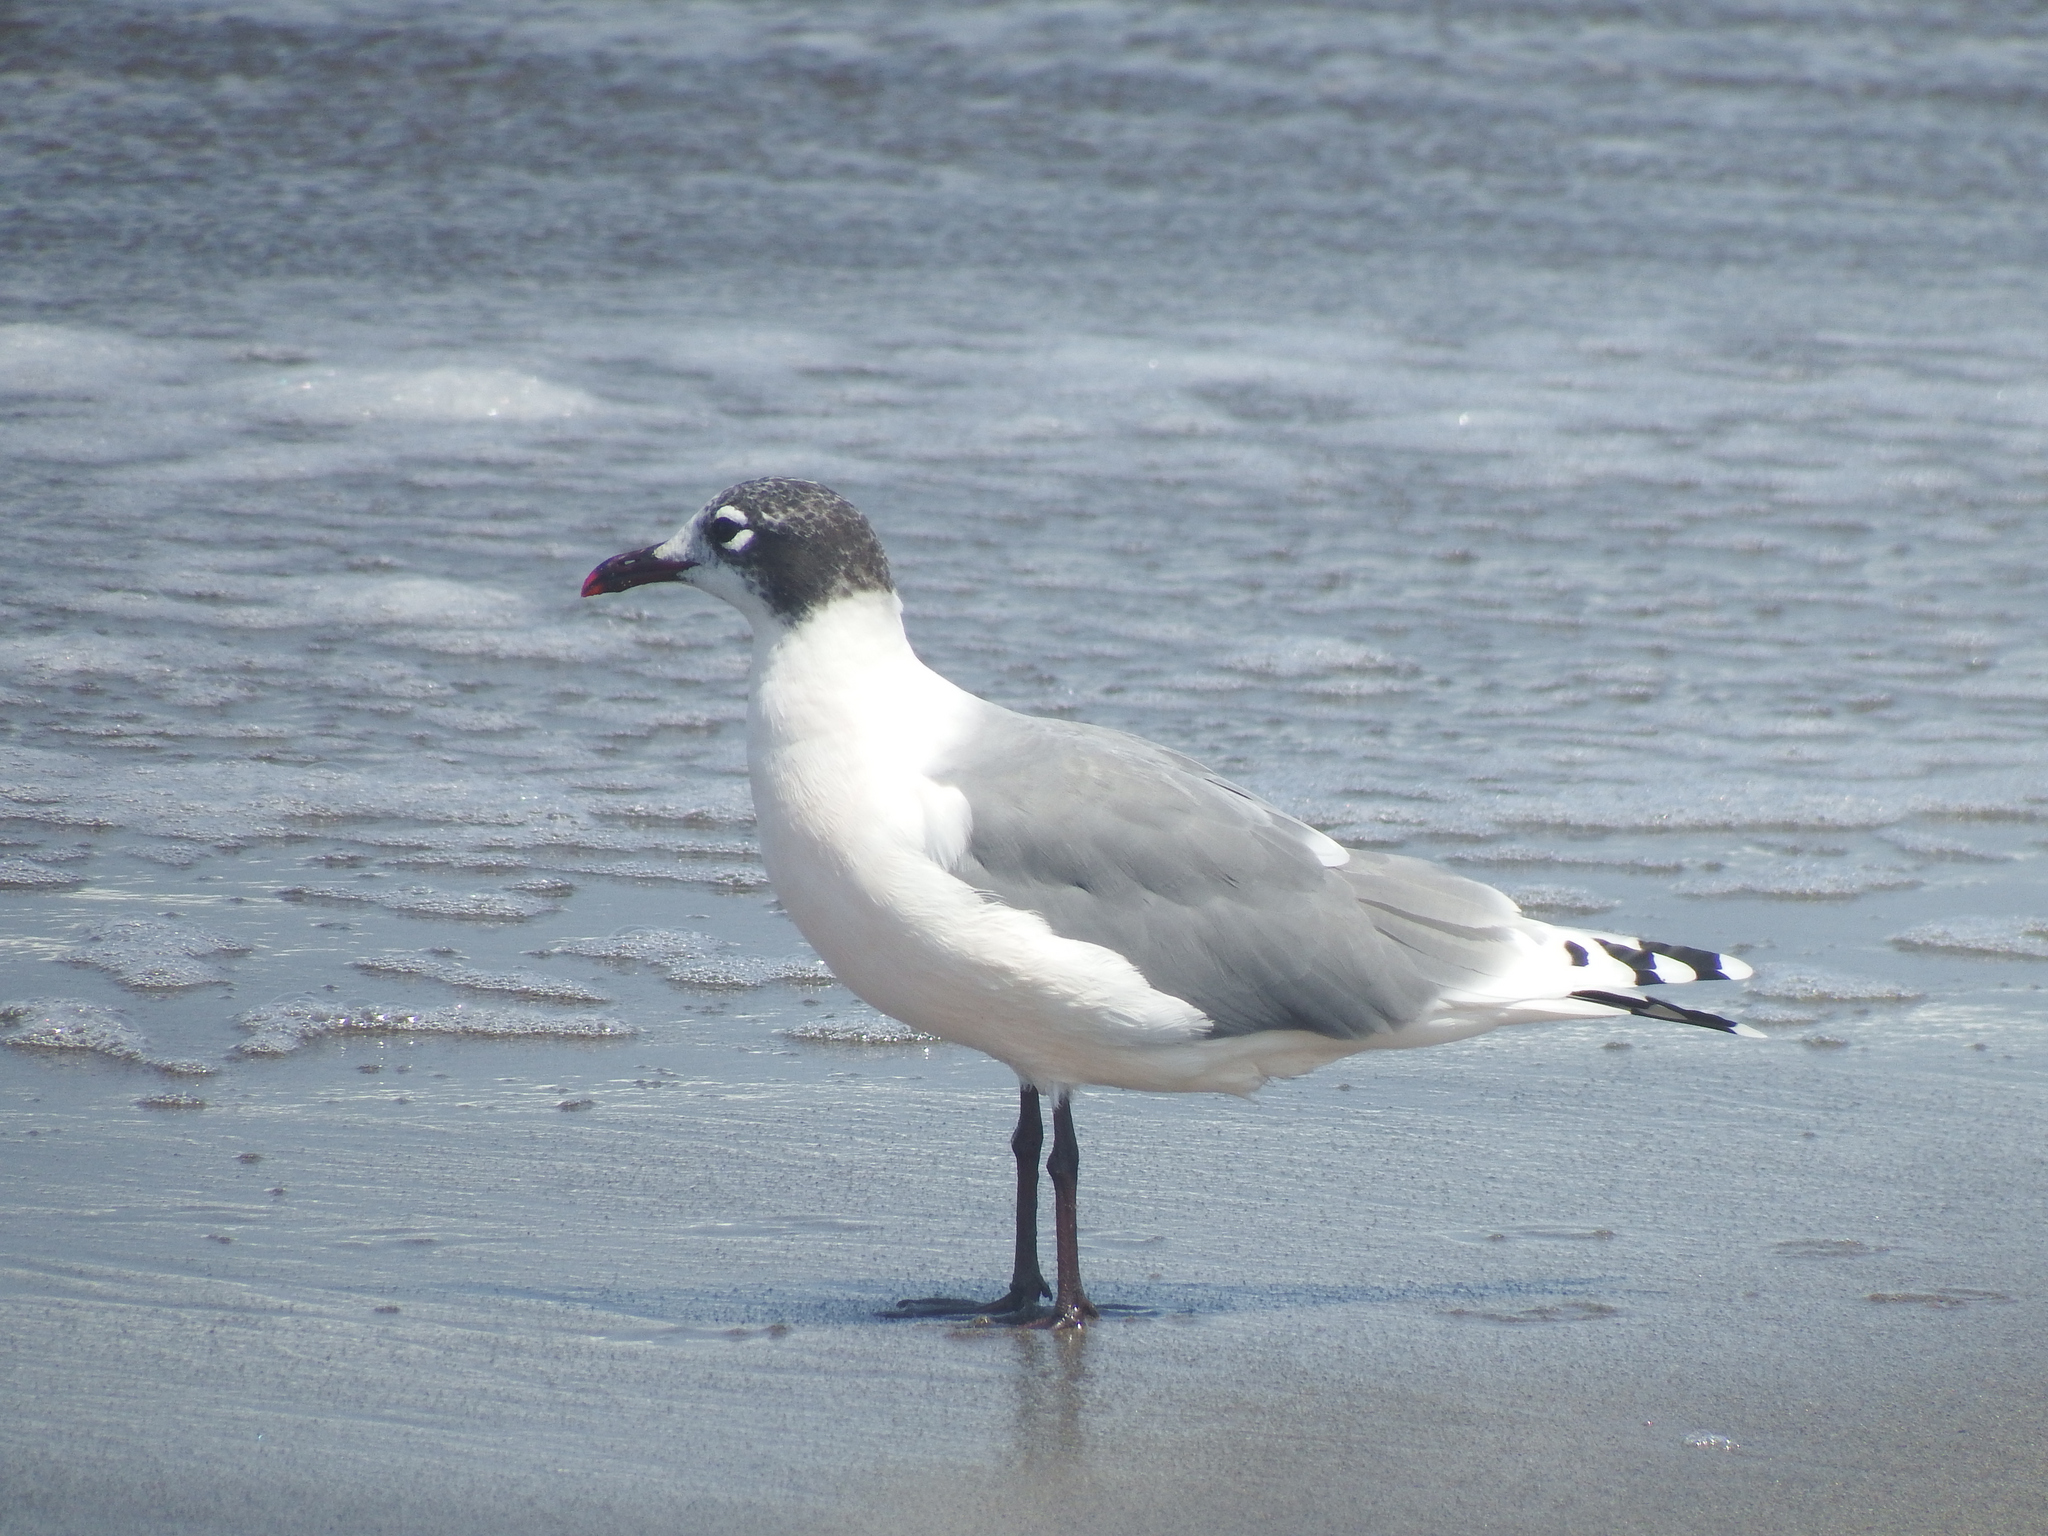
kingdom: Animalia
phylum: Chordata
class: Aves
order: Charadriiformes
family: Laridae
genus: Leucophaeus
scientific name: Leucophaeus pipixcan
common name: Franklin's gull
